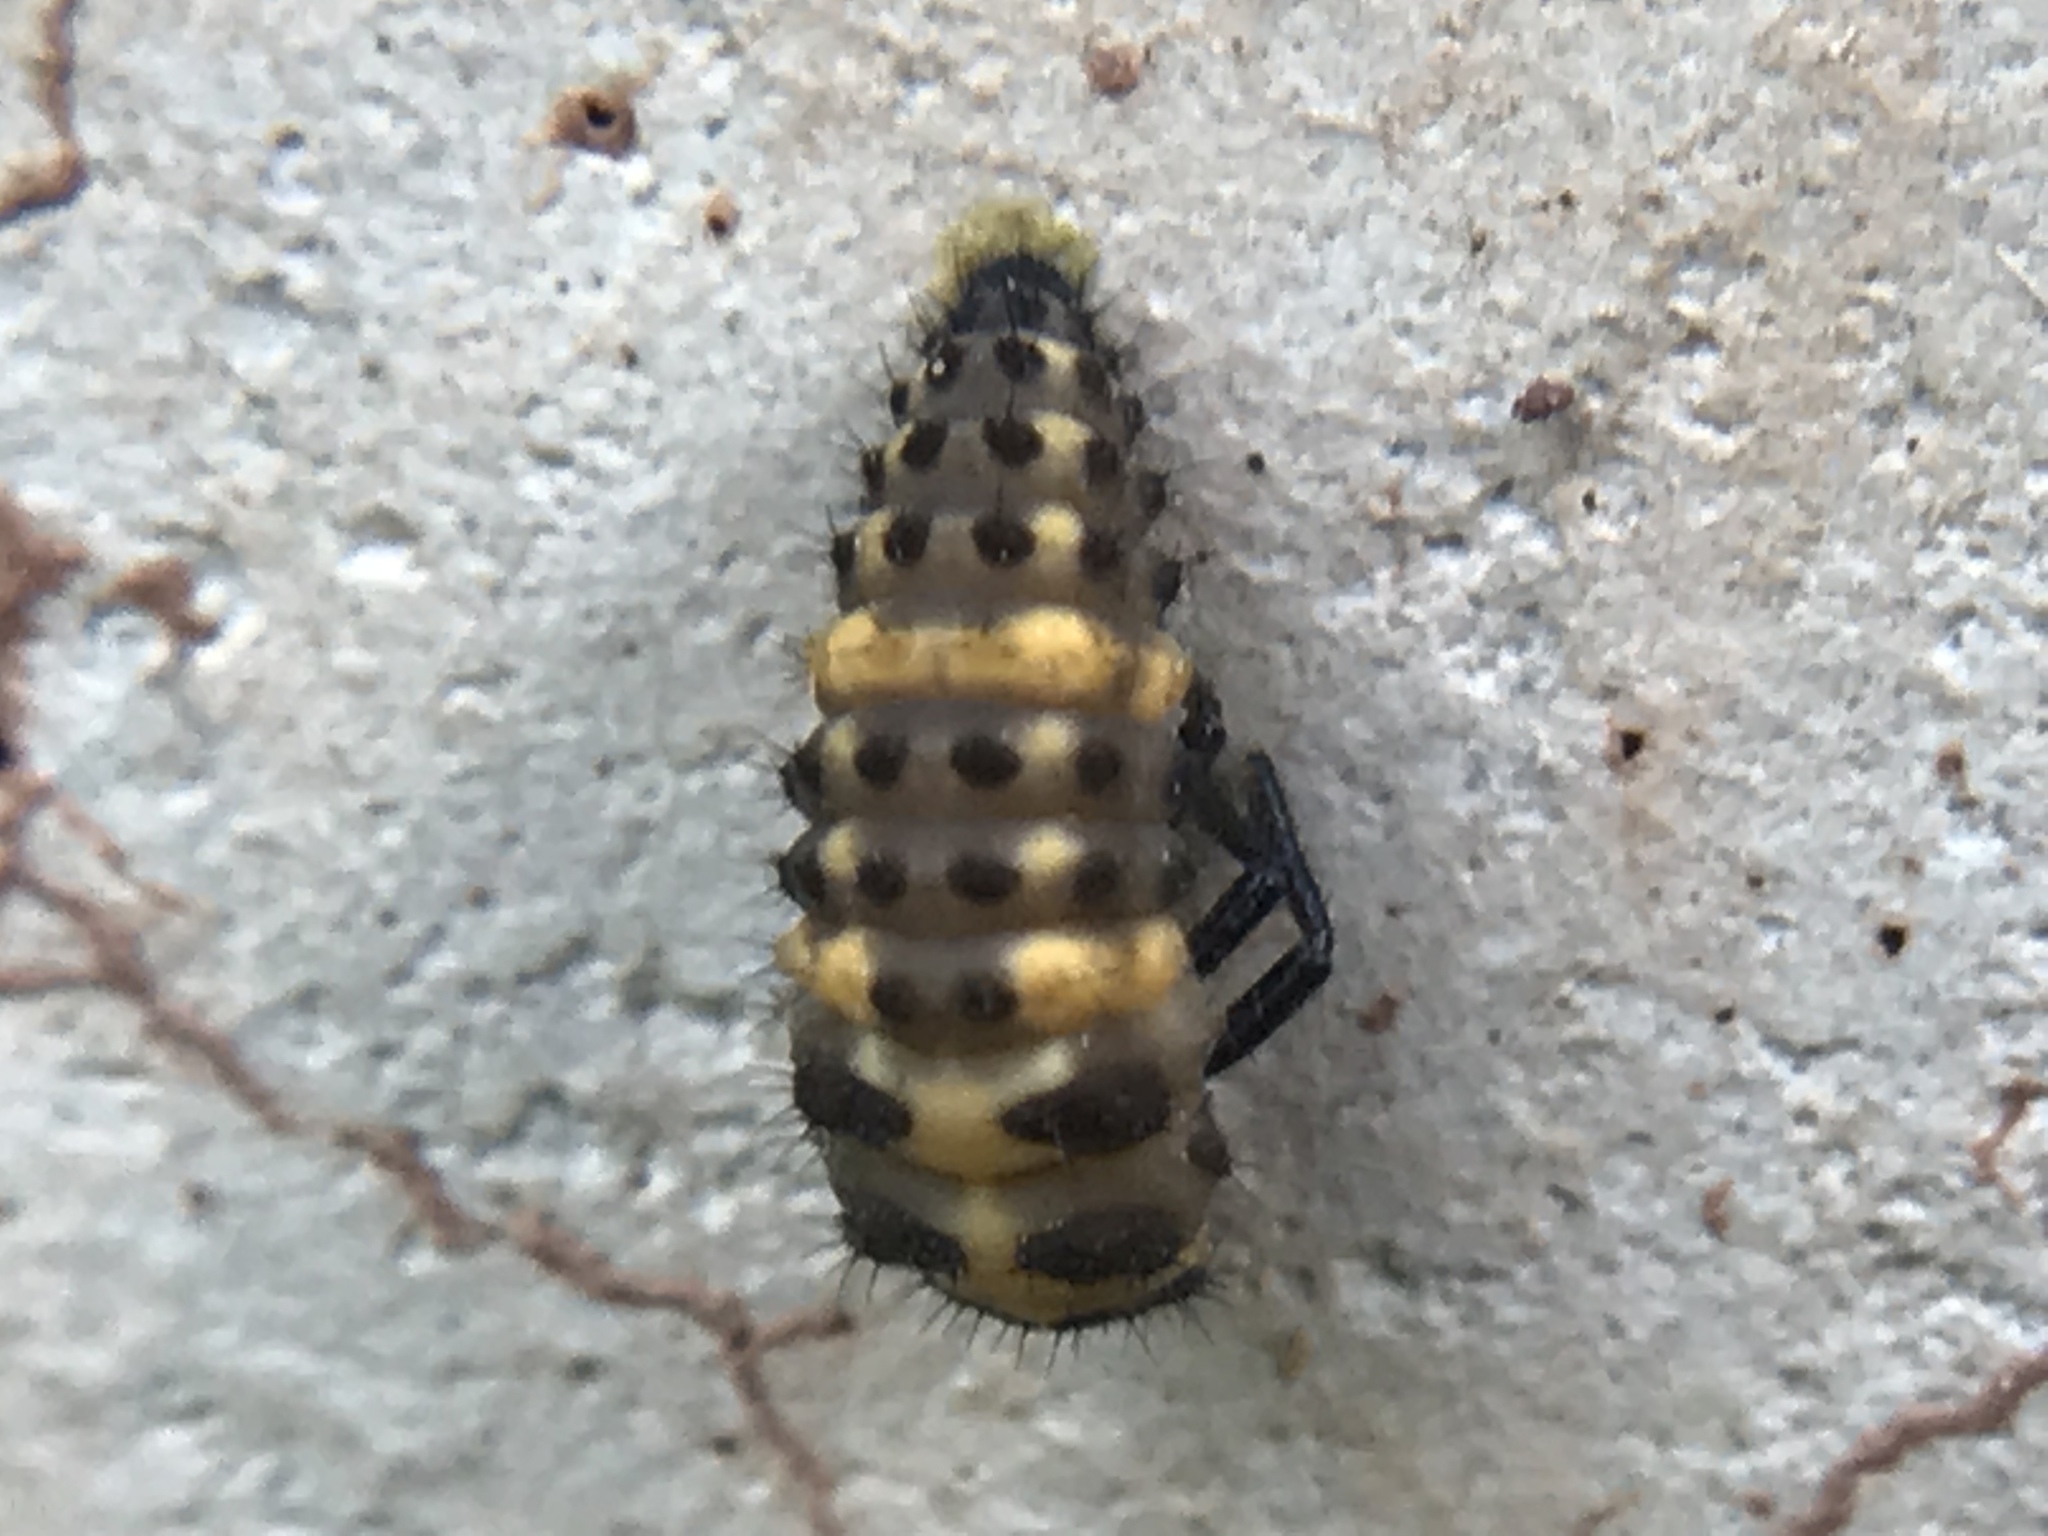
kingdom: Animalia
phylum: Arthropoda
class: Insecta
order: Coleoptera
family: Coccinellidae
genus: Coleomegilla
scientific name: Coleomegilla maculata
